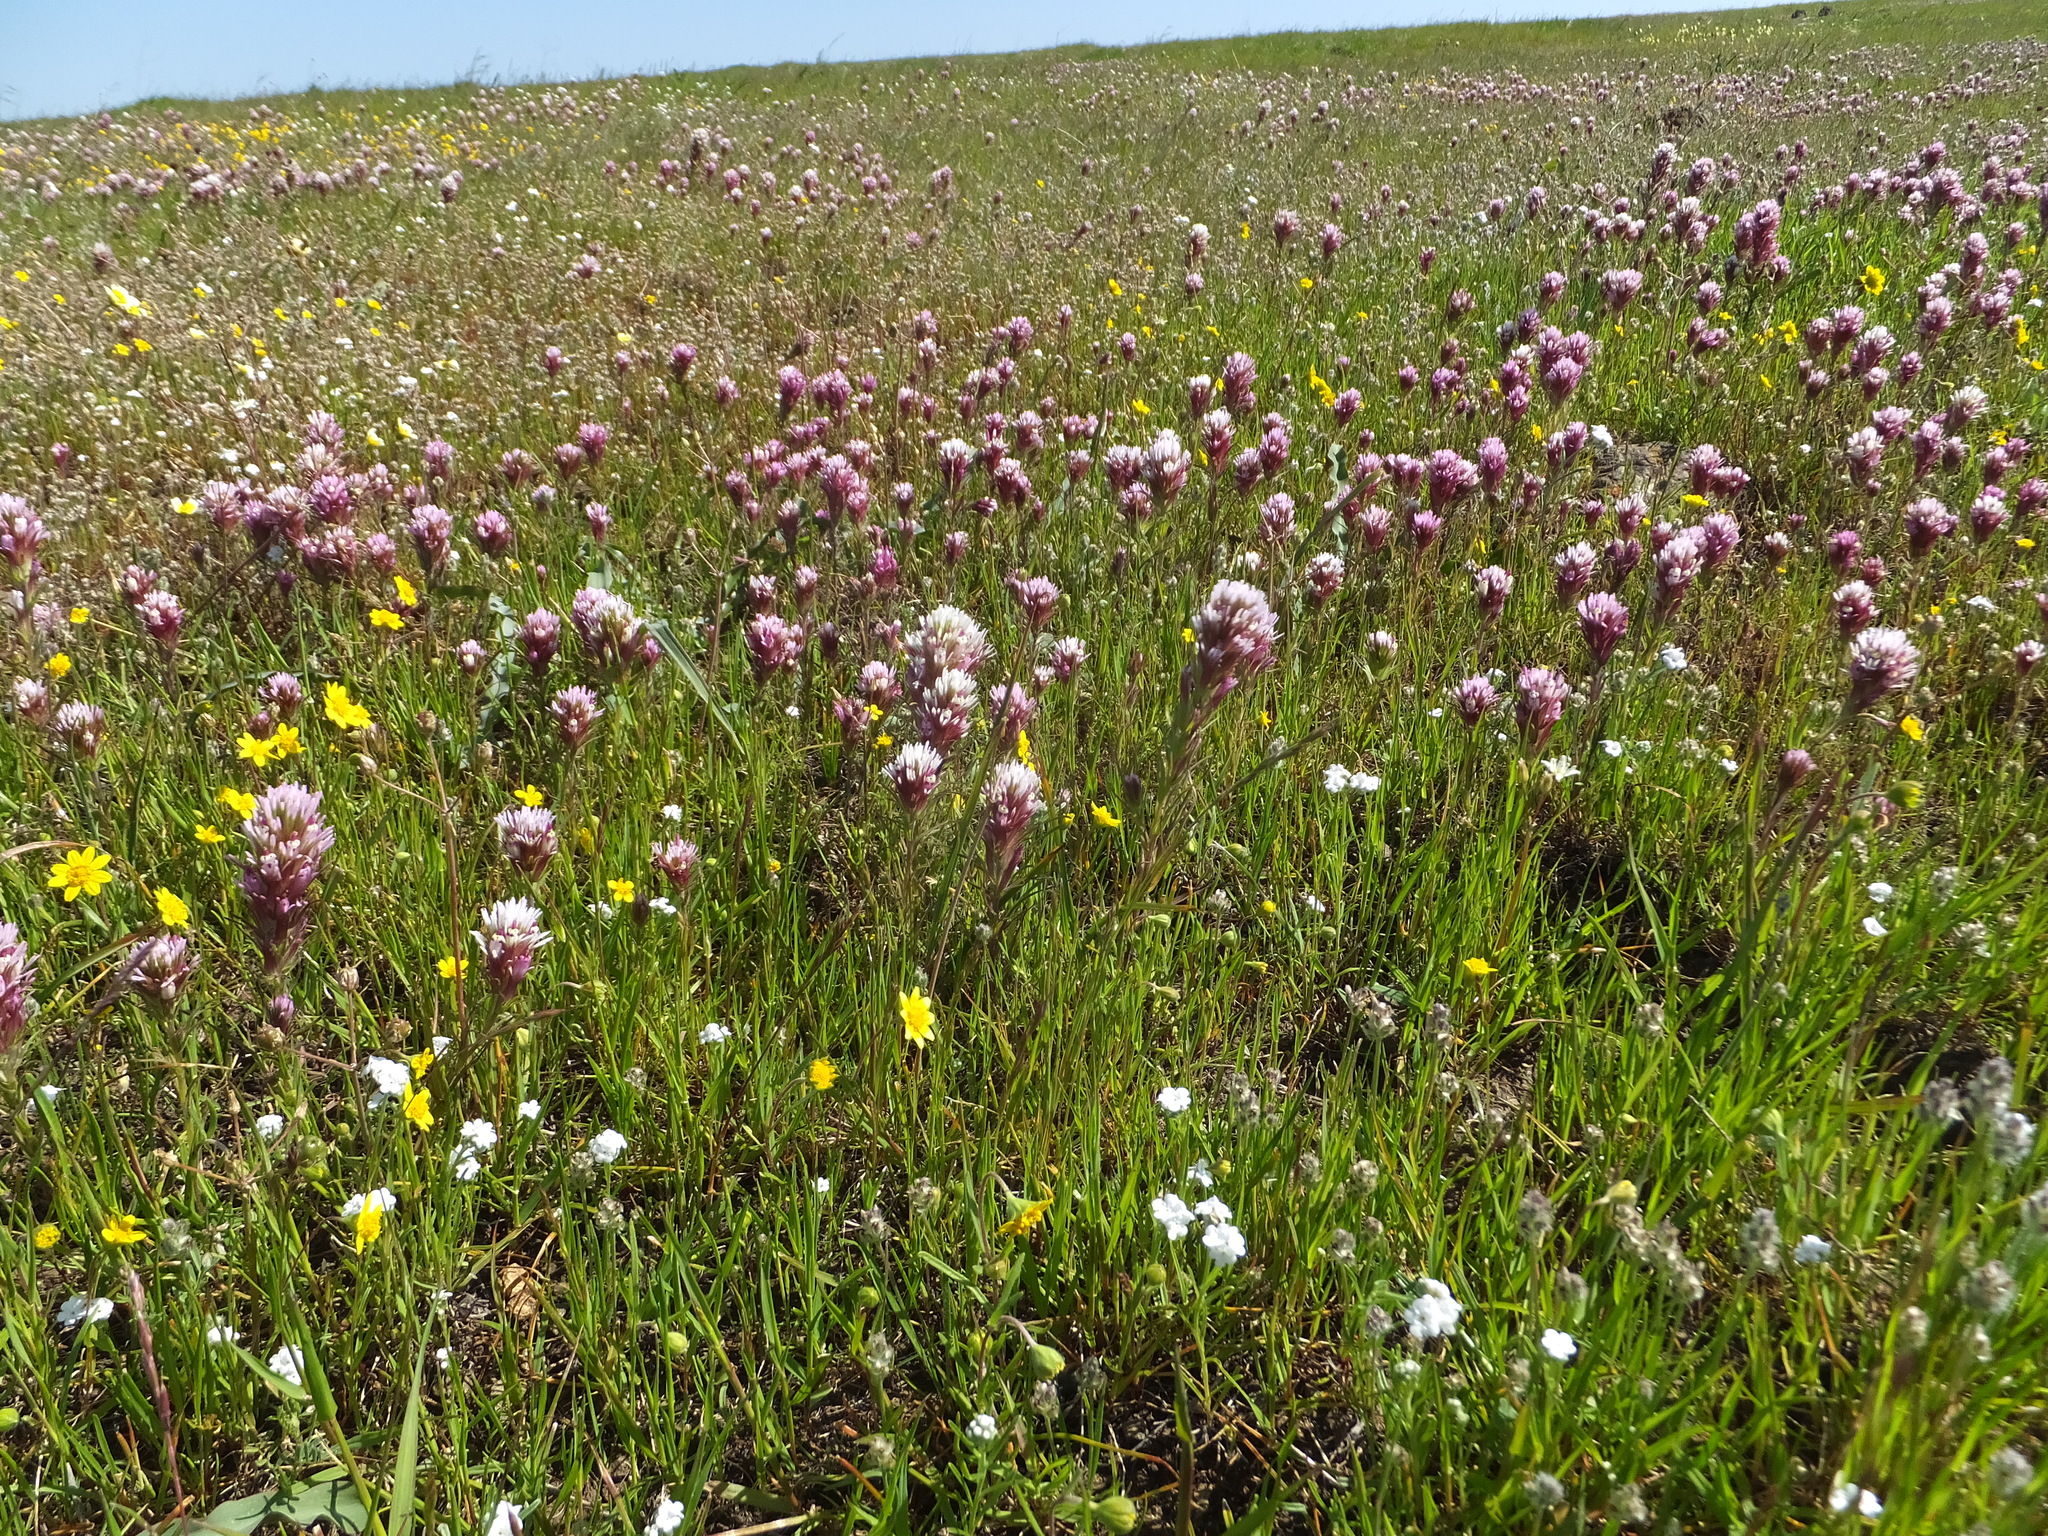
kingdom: Plantae
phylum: Tracheophyta
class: Magnoliopsida
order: Lamiales
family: Orobanchaceae
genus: Castilleja
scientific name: Castilleja densiflora
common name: Dense-flower indian paintbrush
